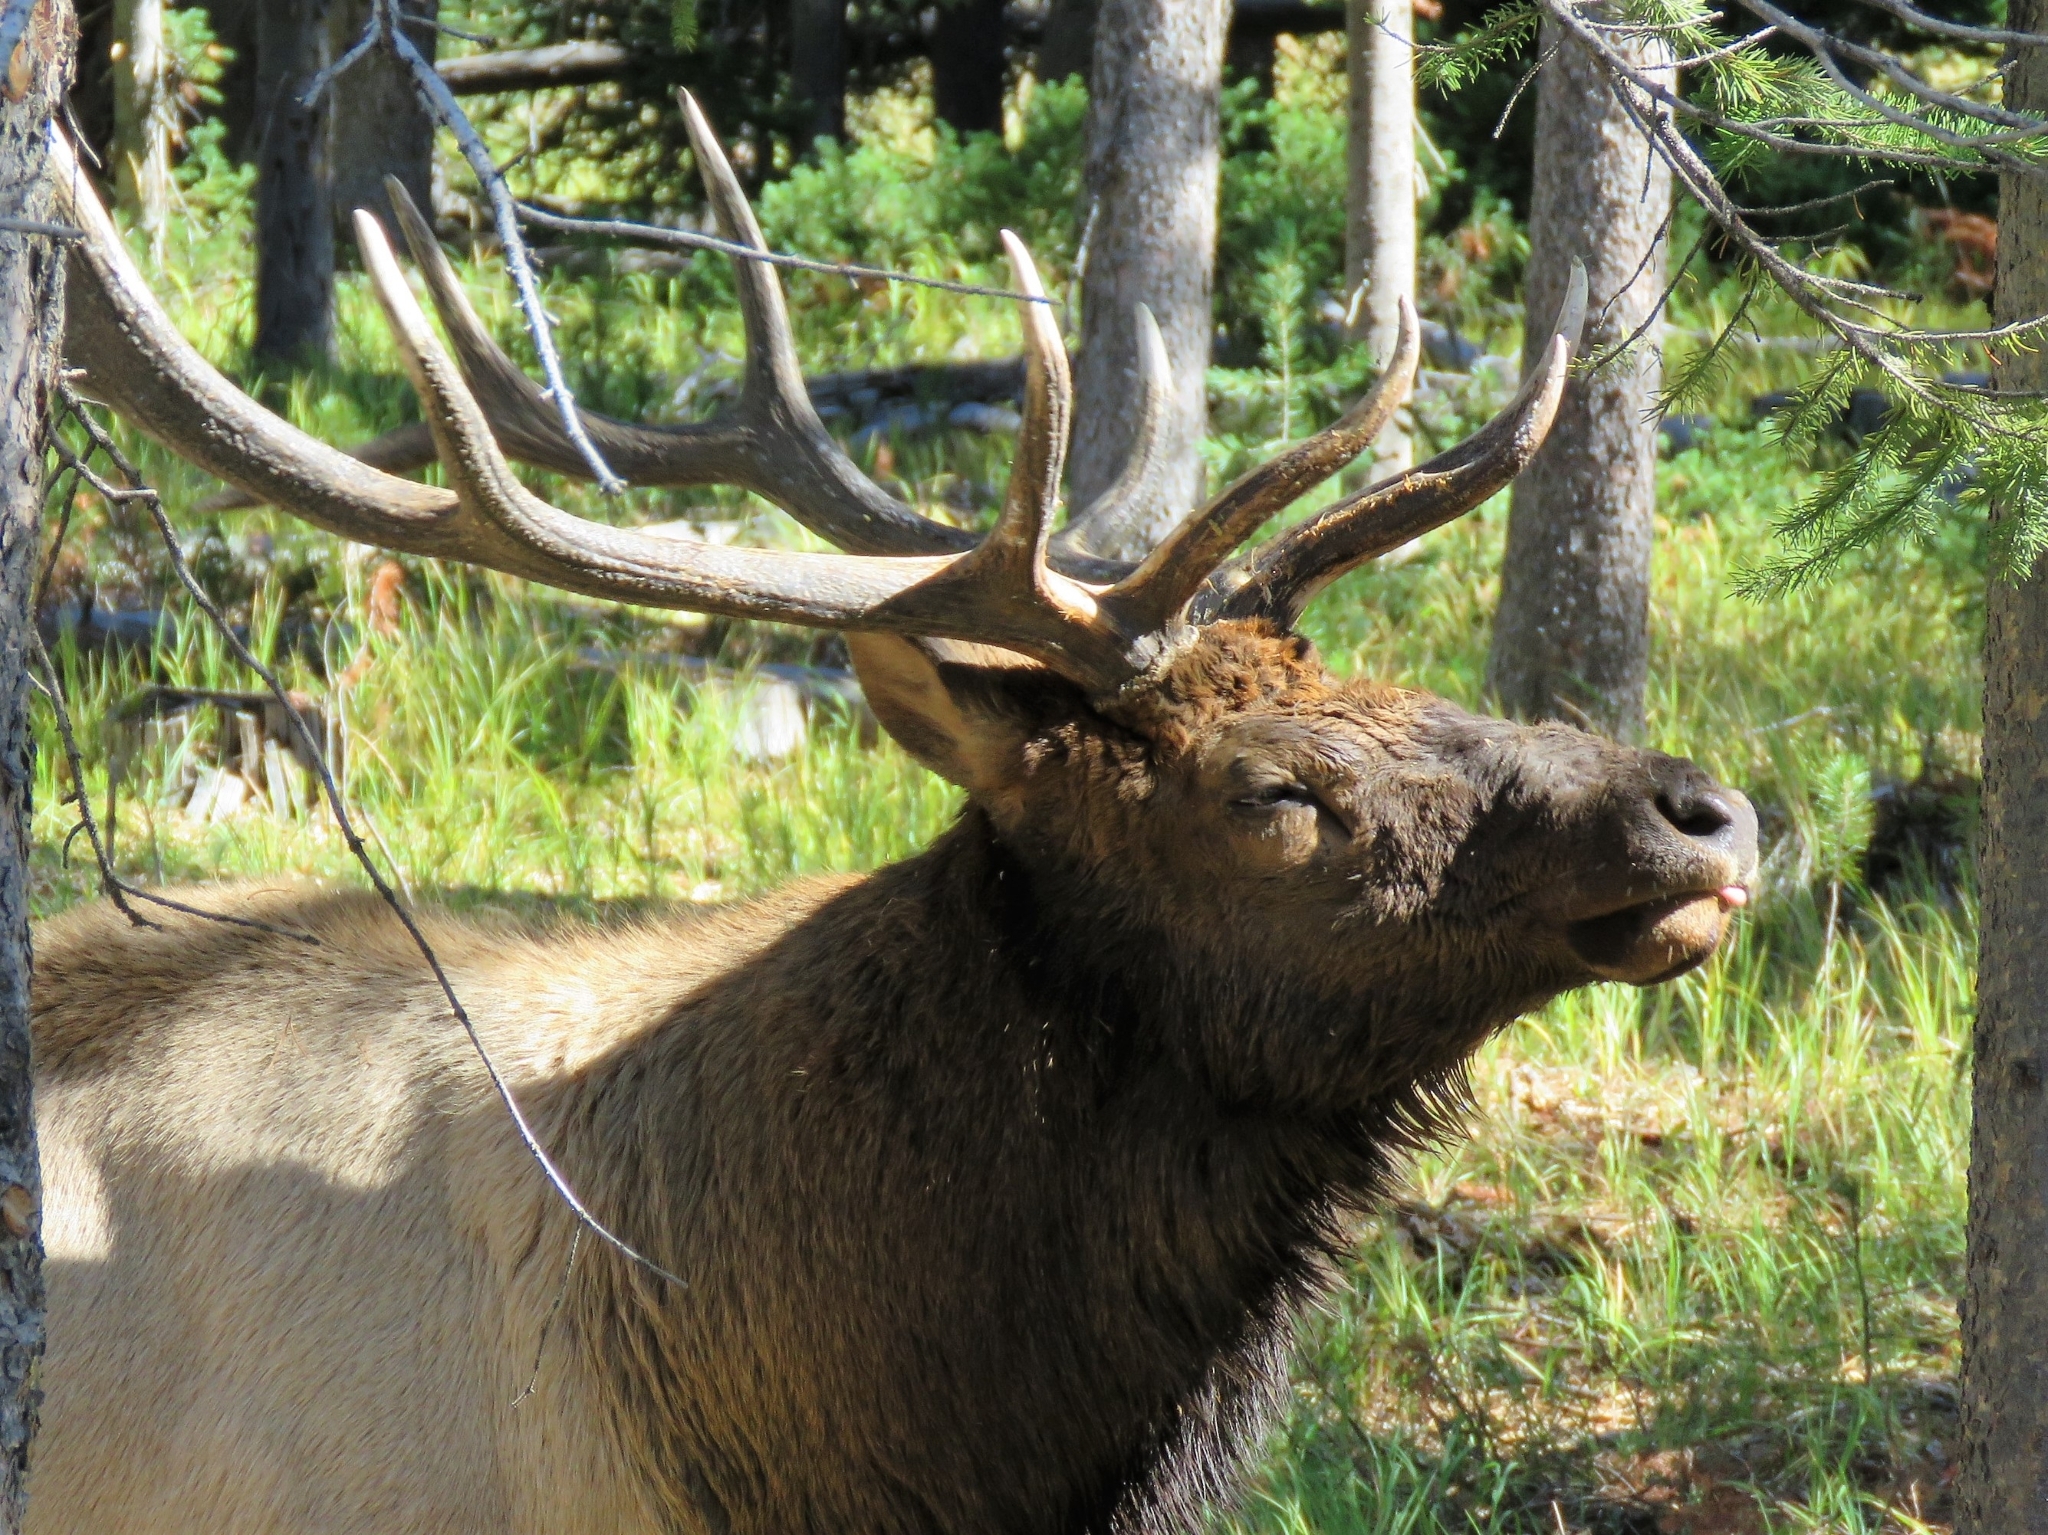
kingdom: Animalia
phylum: Chordata
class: Mammalia
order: Artiodactyla
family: Cervidae
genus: Cervus
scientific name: Cervus elaphus
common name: Red deer
